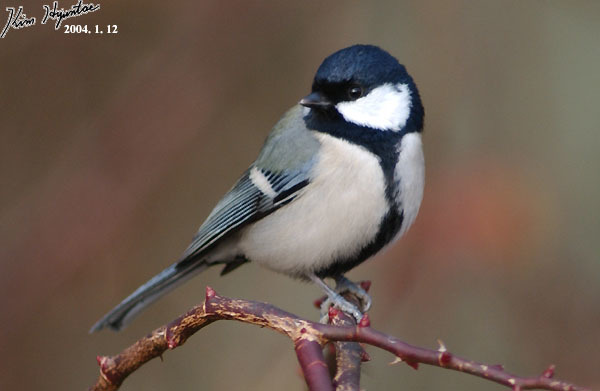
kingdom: Animalia
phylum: Chordata
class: Aves
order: Passeriformes
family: Paridae
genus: Parus
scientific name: Parus minor
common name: Japanese tit
